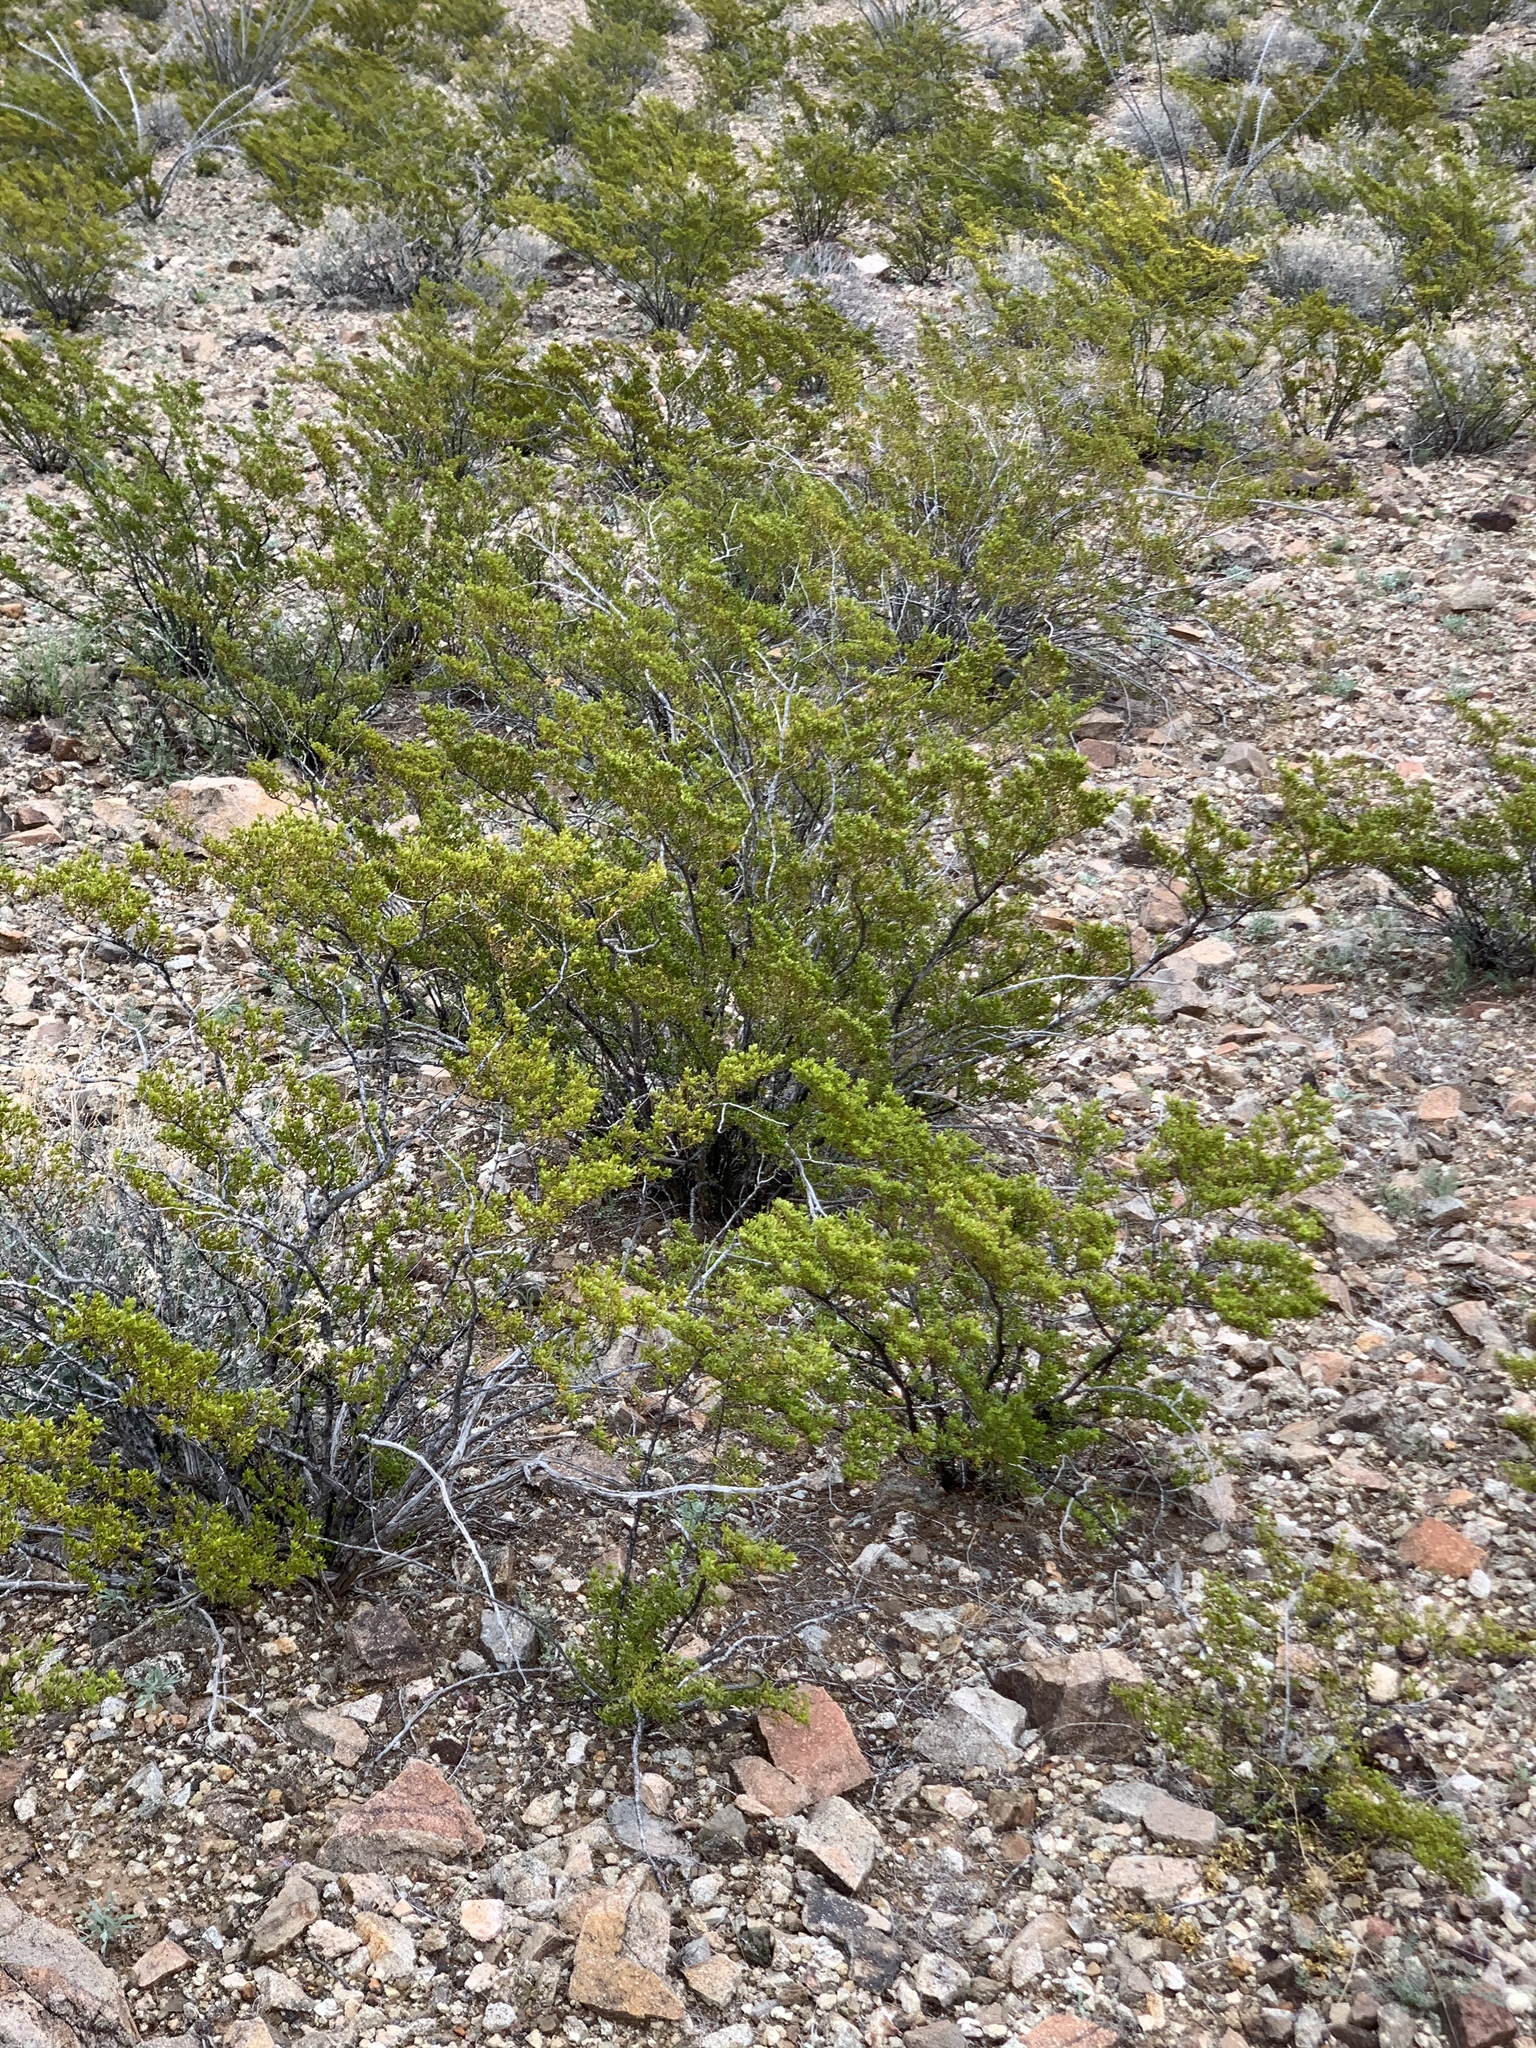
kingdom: Plantae
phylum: Tracheophyta
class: Magnoliopsida
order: Zygophyllales
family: Zygophyllaceae
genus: Larrea
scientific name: Larrea tridentata
